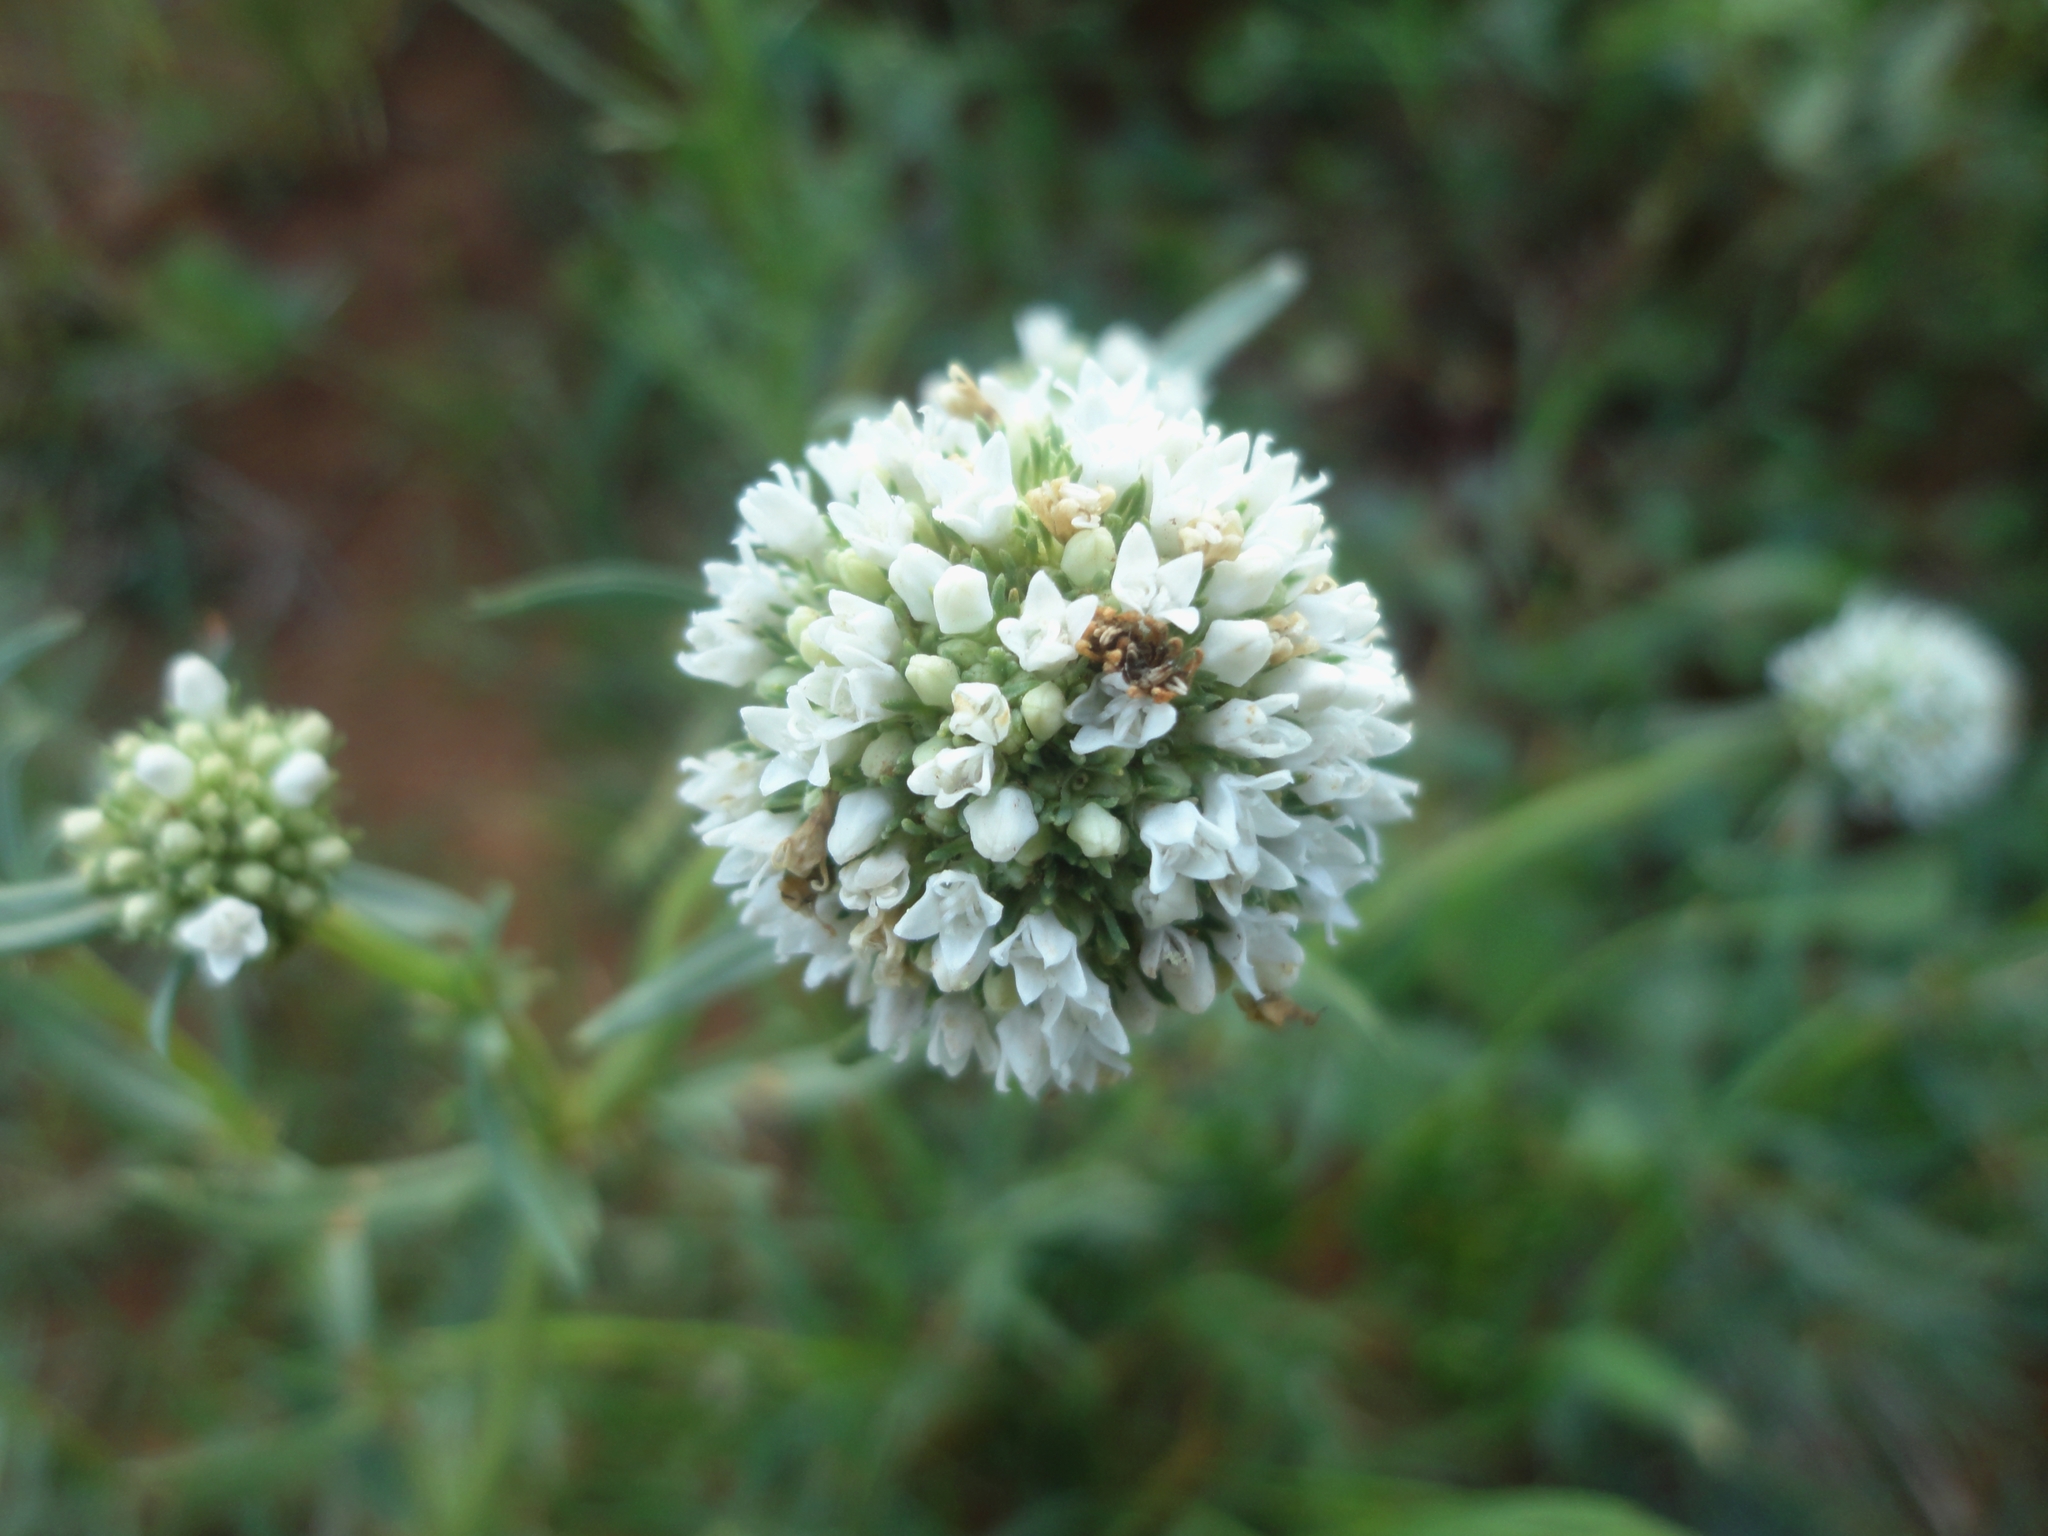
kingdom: Plantae
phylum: Tracheophyta
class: Magnoliopsida
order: Gentianales
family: Rubiaceae
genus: Spermacoce
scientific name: Spermacoce verticillata
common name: Shrubby false buttonweed
